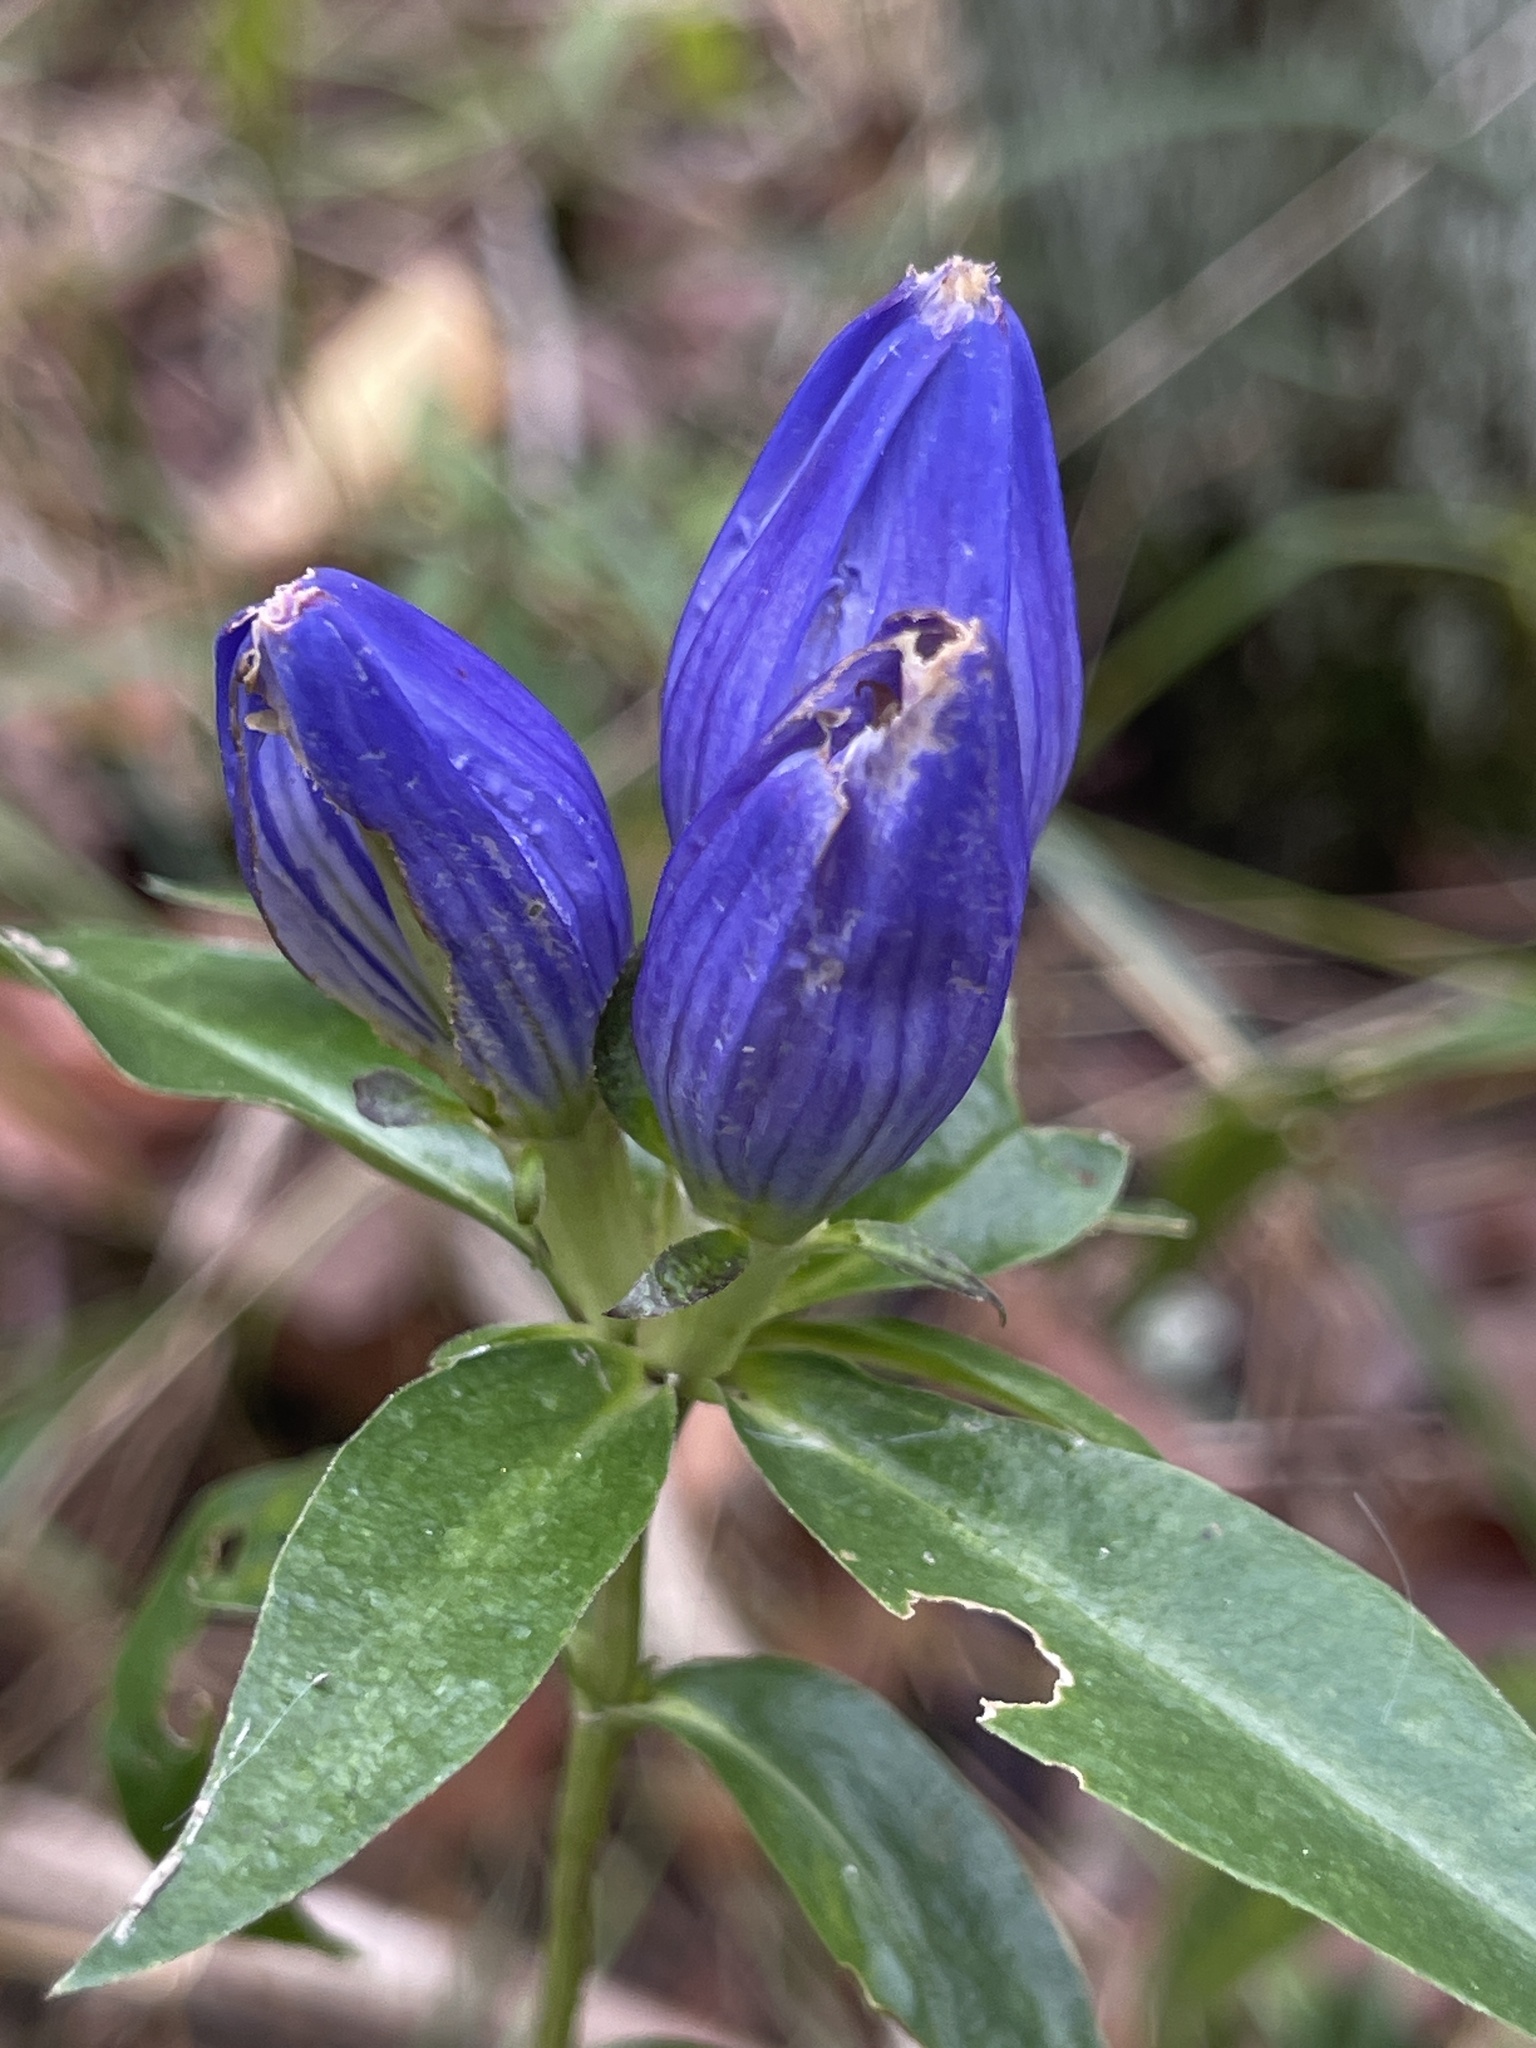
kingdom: Plantae
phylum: Tracheophyta
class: Magnoliopsida
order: Gentianales
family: Gentianaceae
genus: Gentiana
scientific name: Gentiana andrewsii
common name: Bottle gentian
